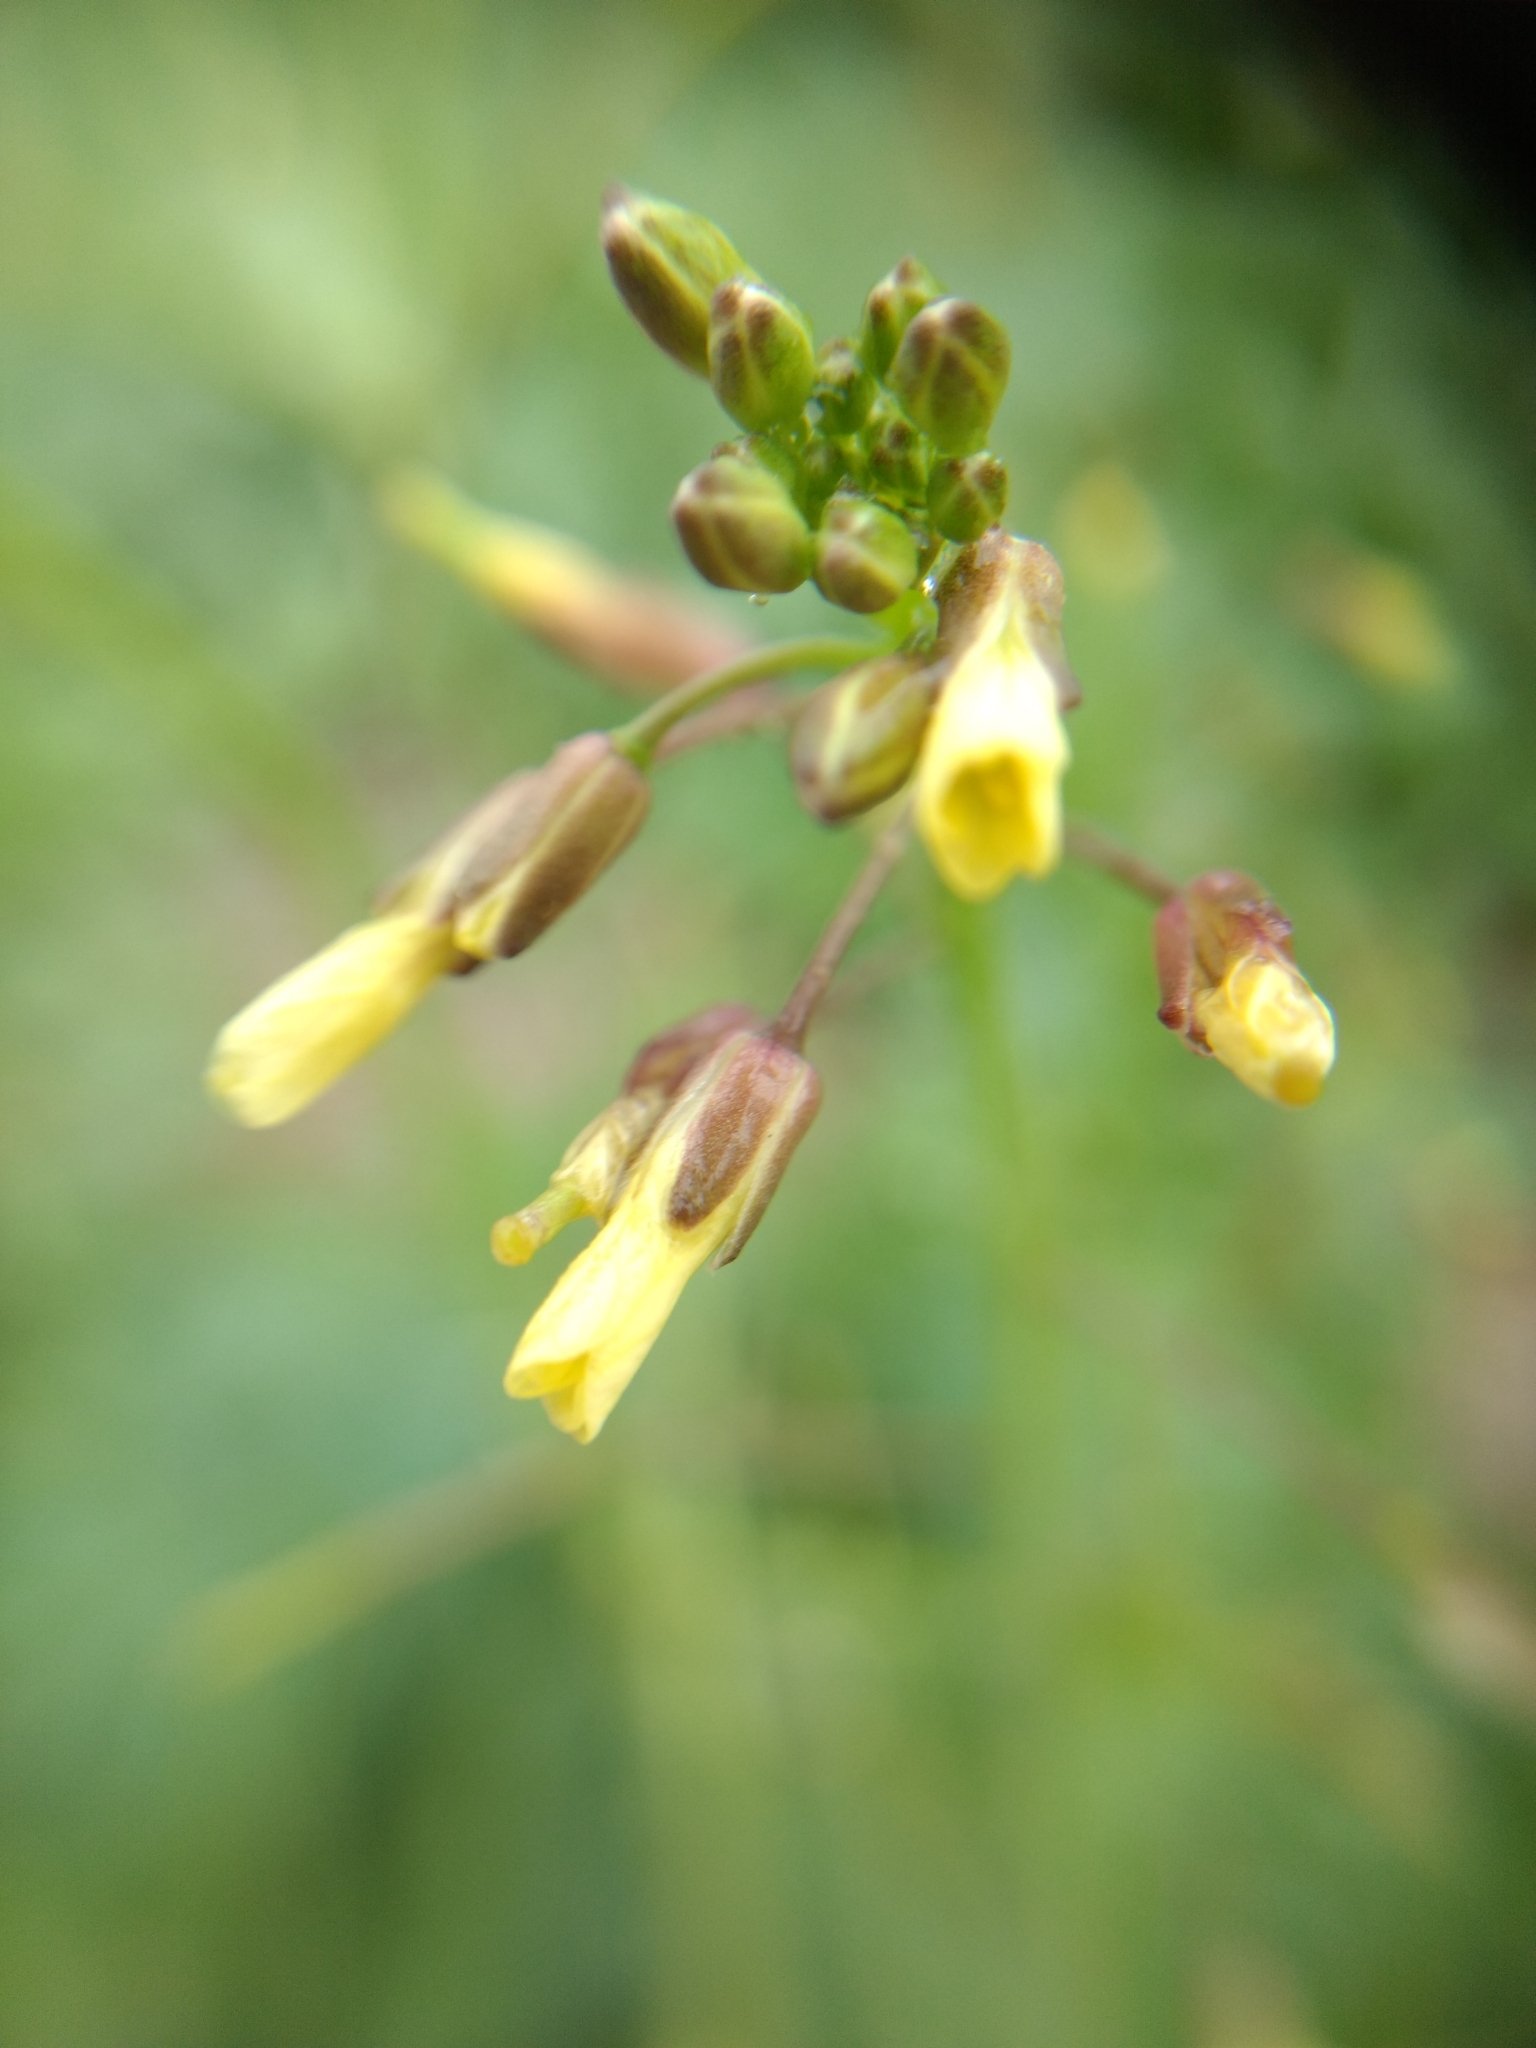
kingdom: Plantae
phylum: Tracheophyta
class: Magnoliopsida
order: Brassicales
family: Brassicaceae
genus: Brassica
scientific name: Brassica tournefortii
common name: Pale cabbage
